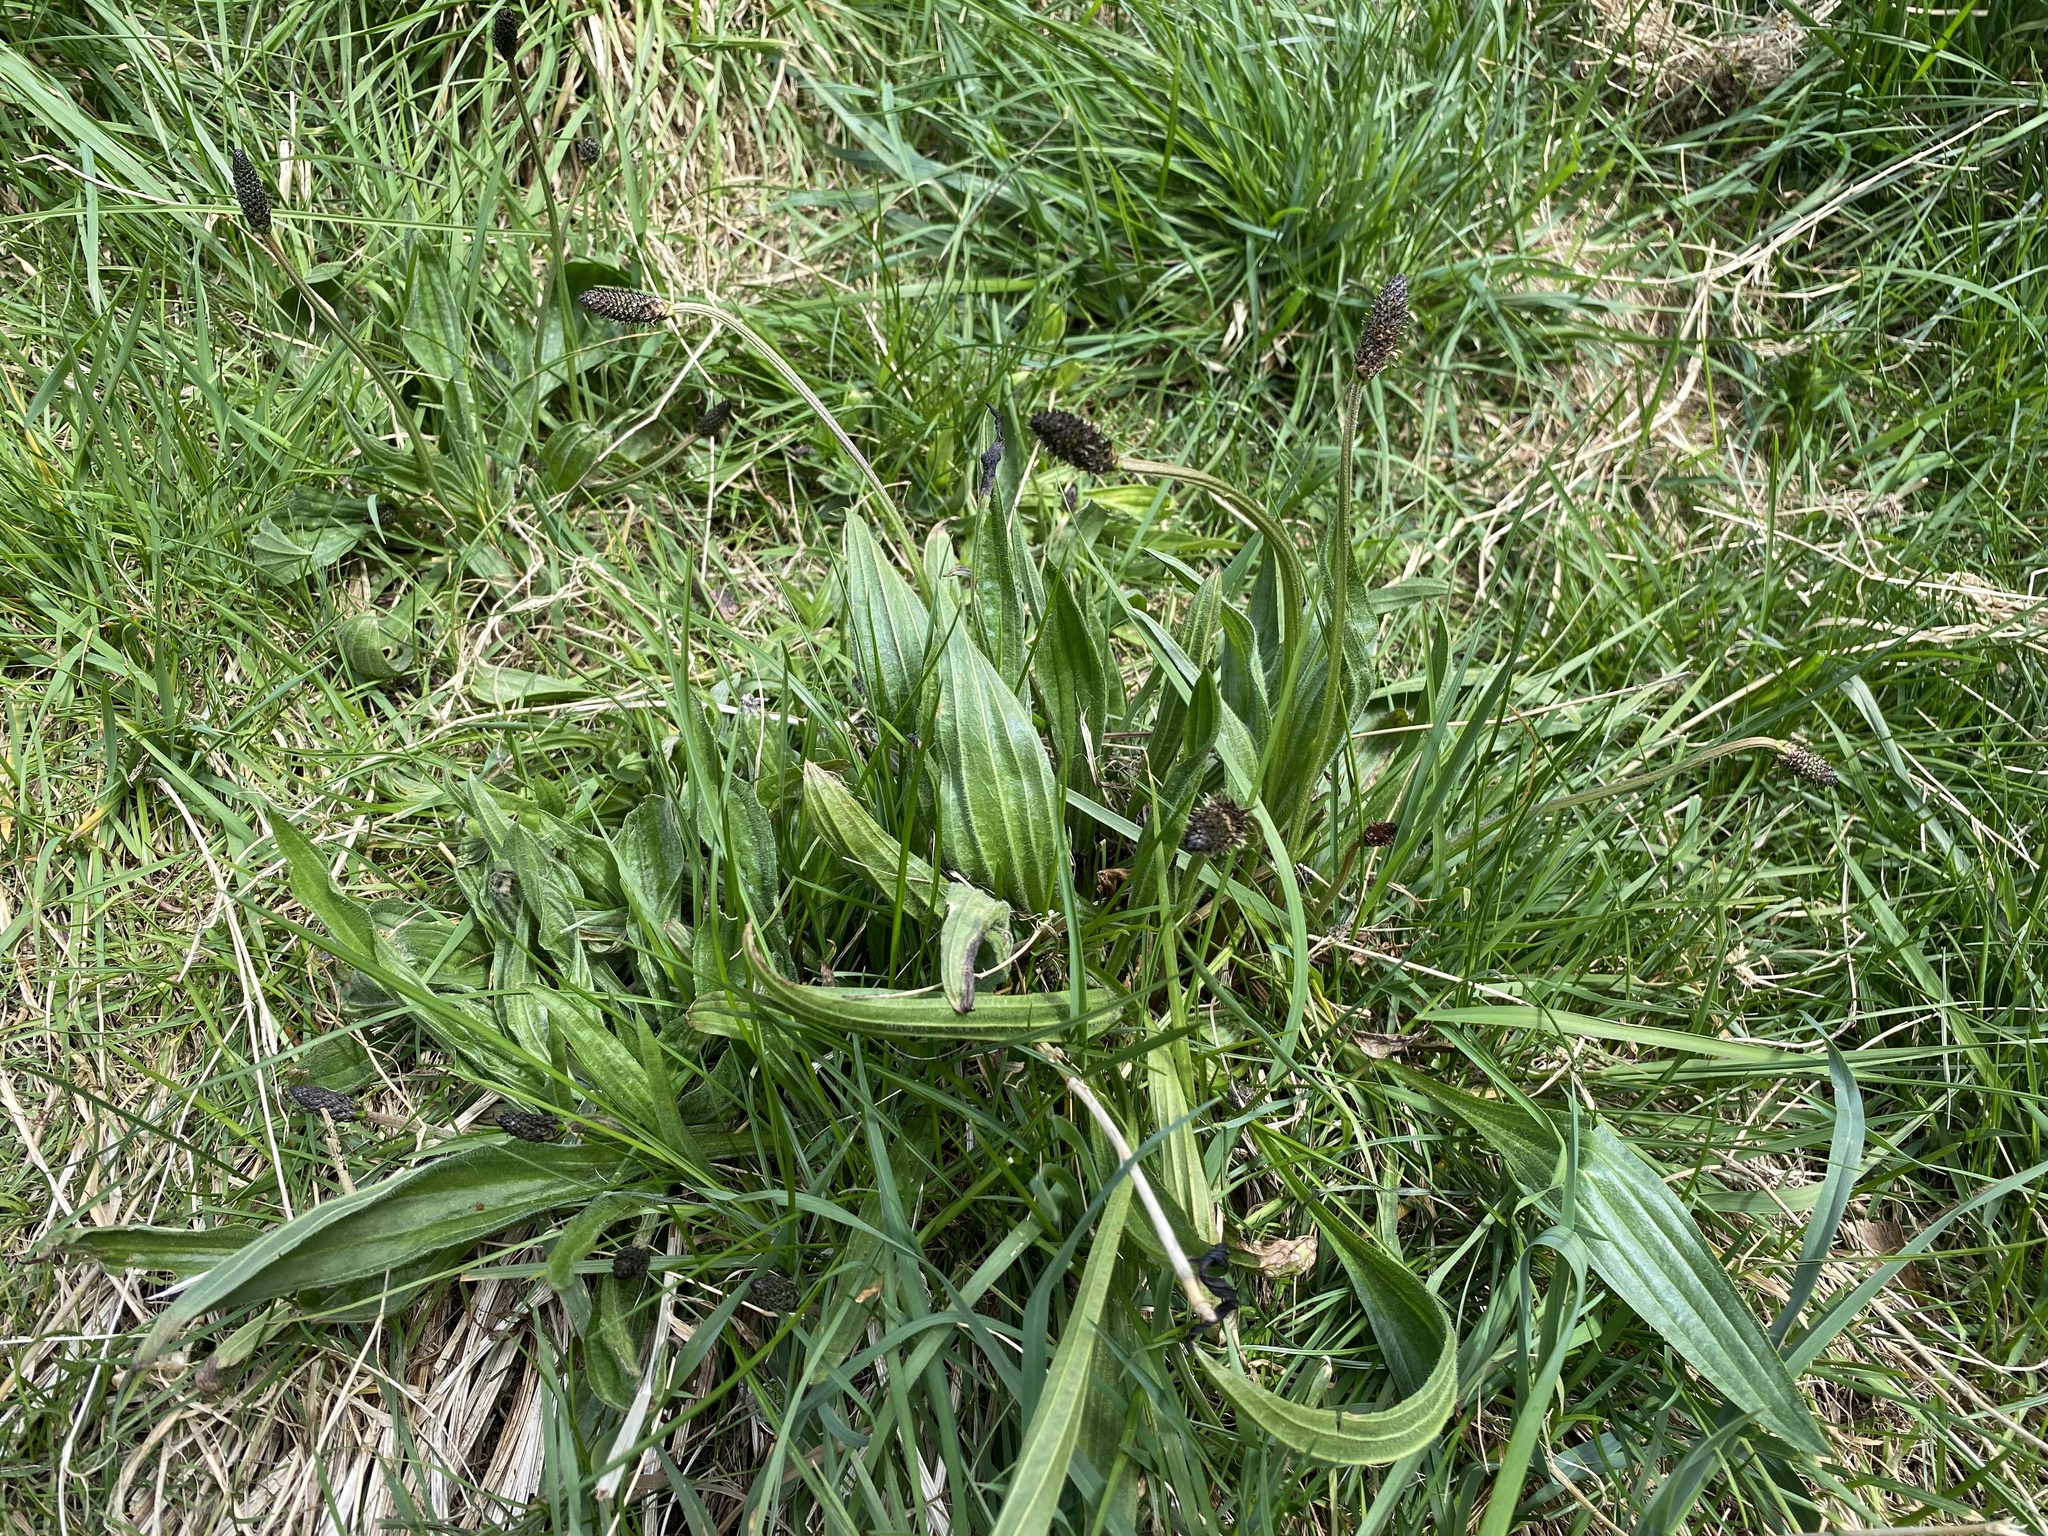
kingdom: Plantae
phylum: Tracheophyta
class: Magnoliopsida
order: Lamiales
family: Plantaginaceae
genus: Plantago
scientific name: Plantago lanceolata
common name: Ribwort plantain
